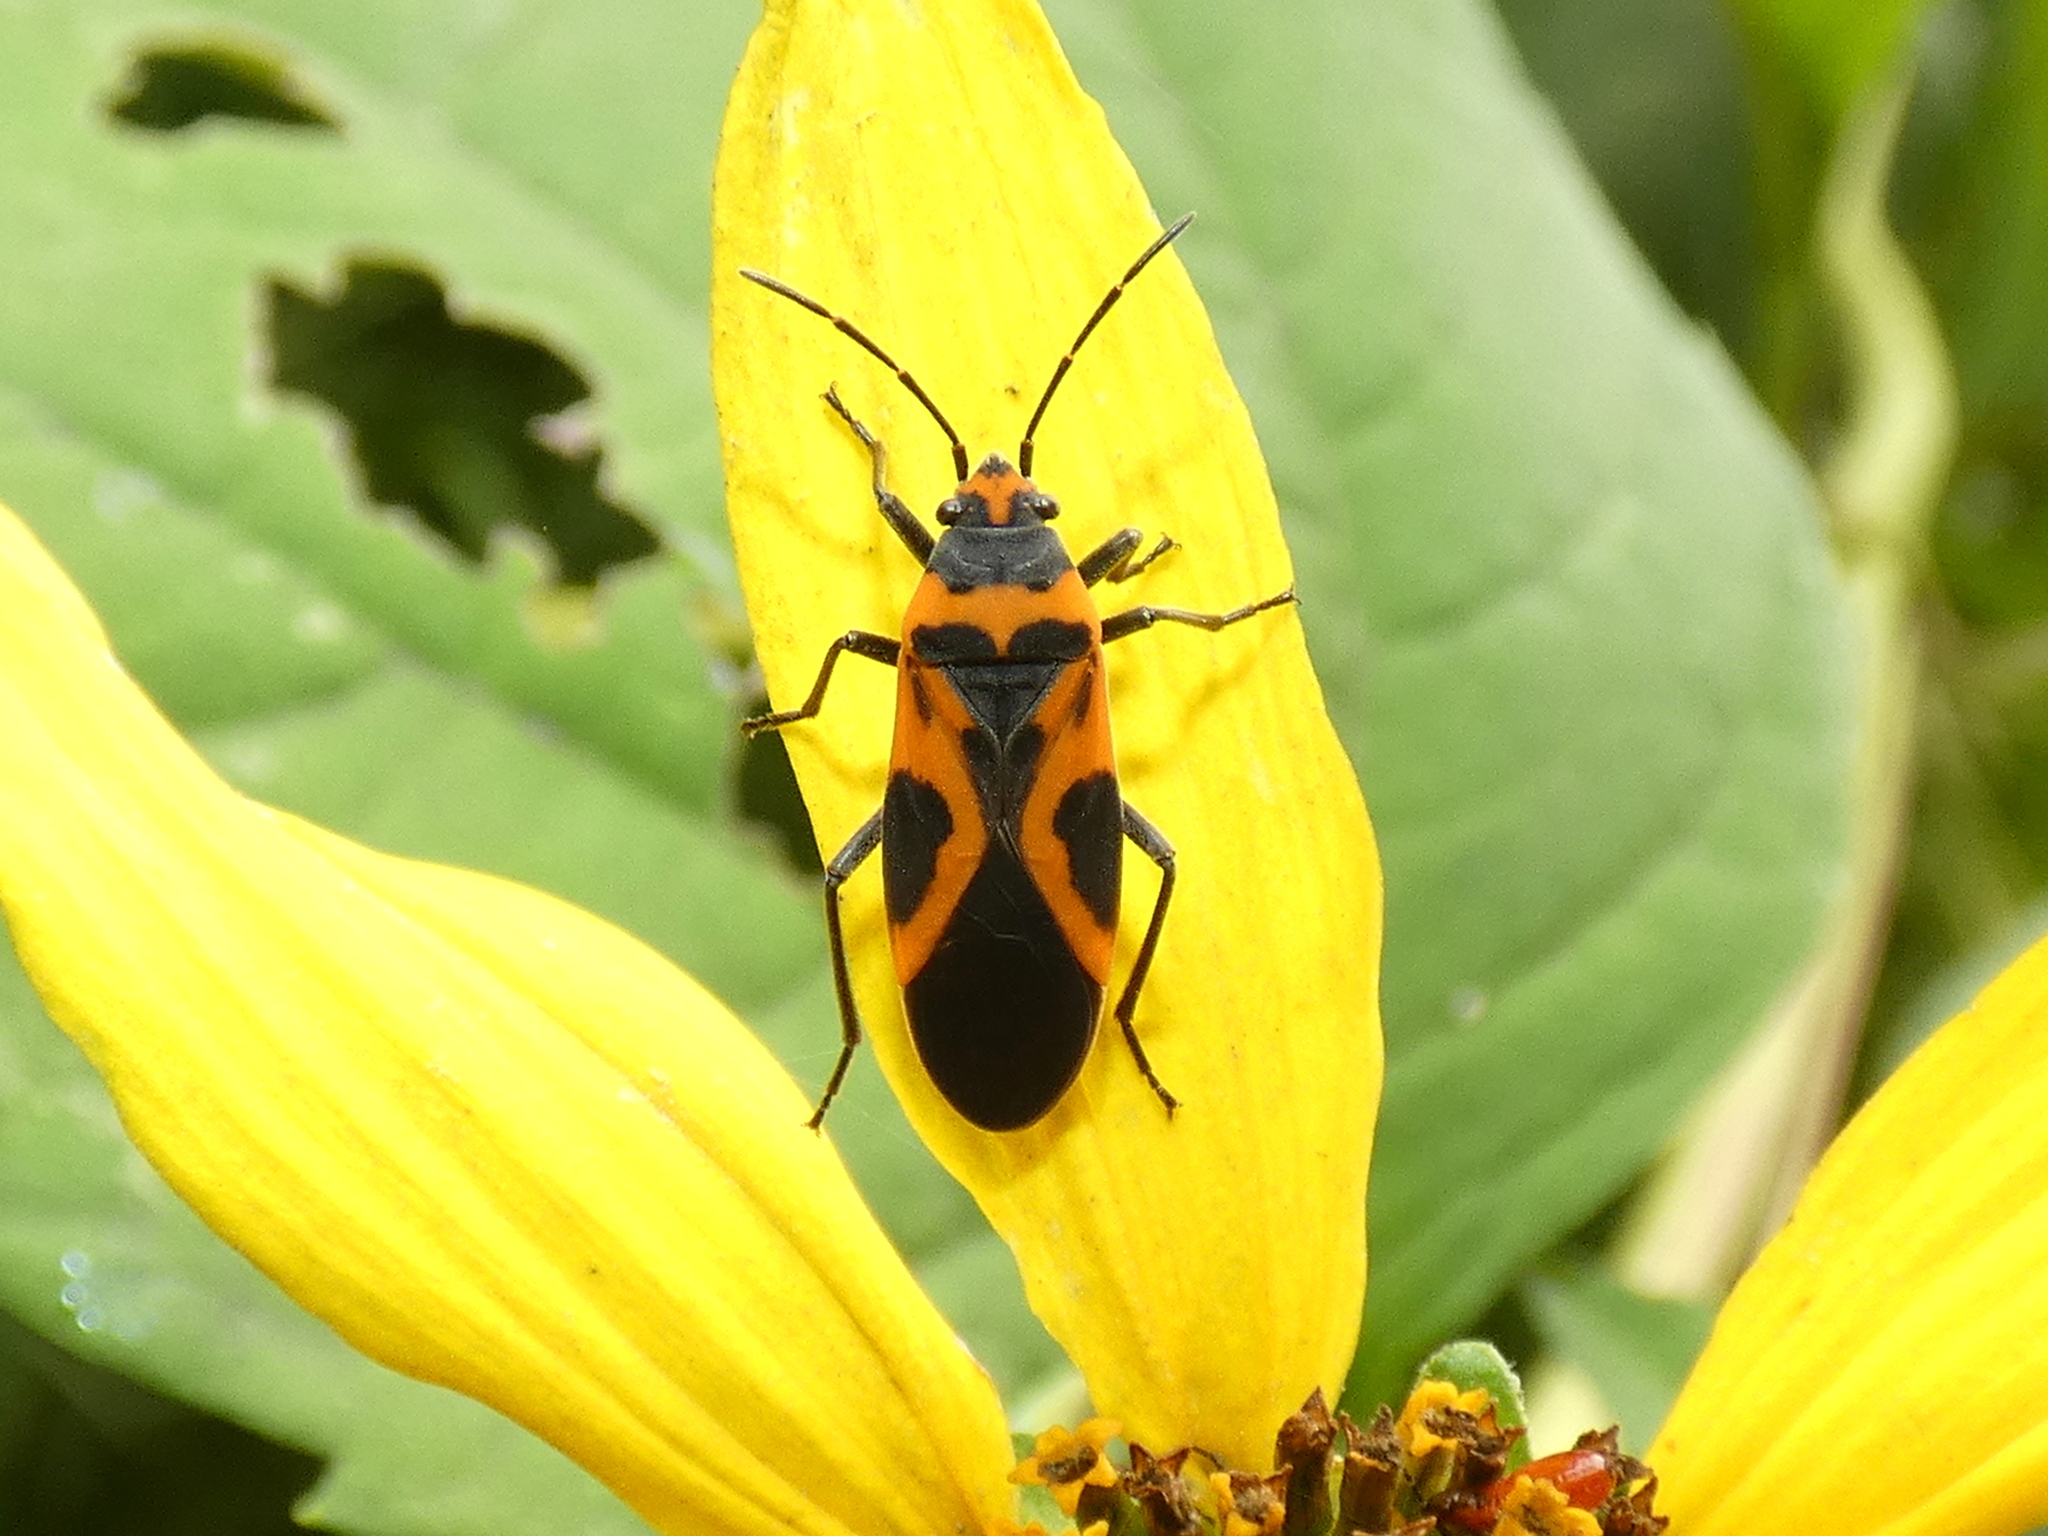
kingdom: Animalia
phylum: Arthropoda
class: Insecta
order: Hemiptera
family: Lygaeidae
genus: Lygaeus
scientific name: Lygaeus turcicus
